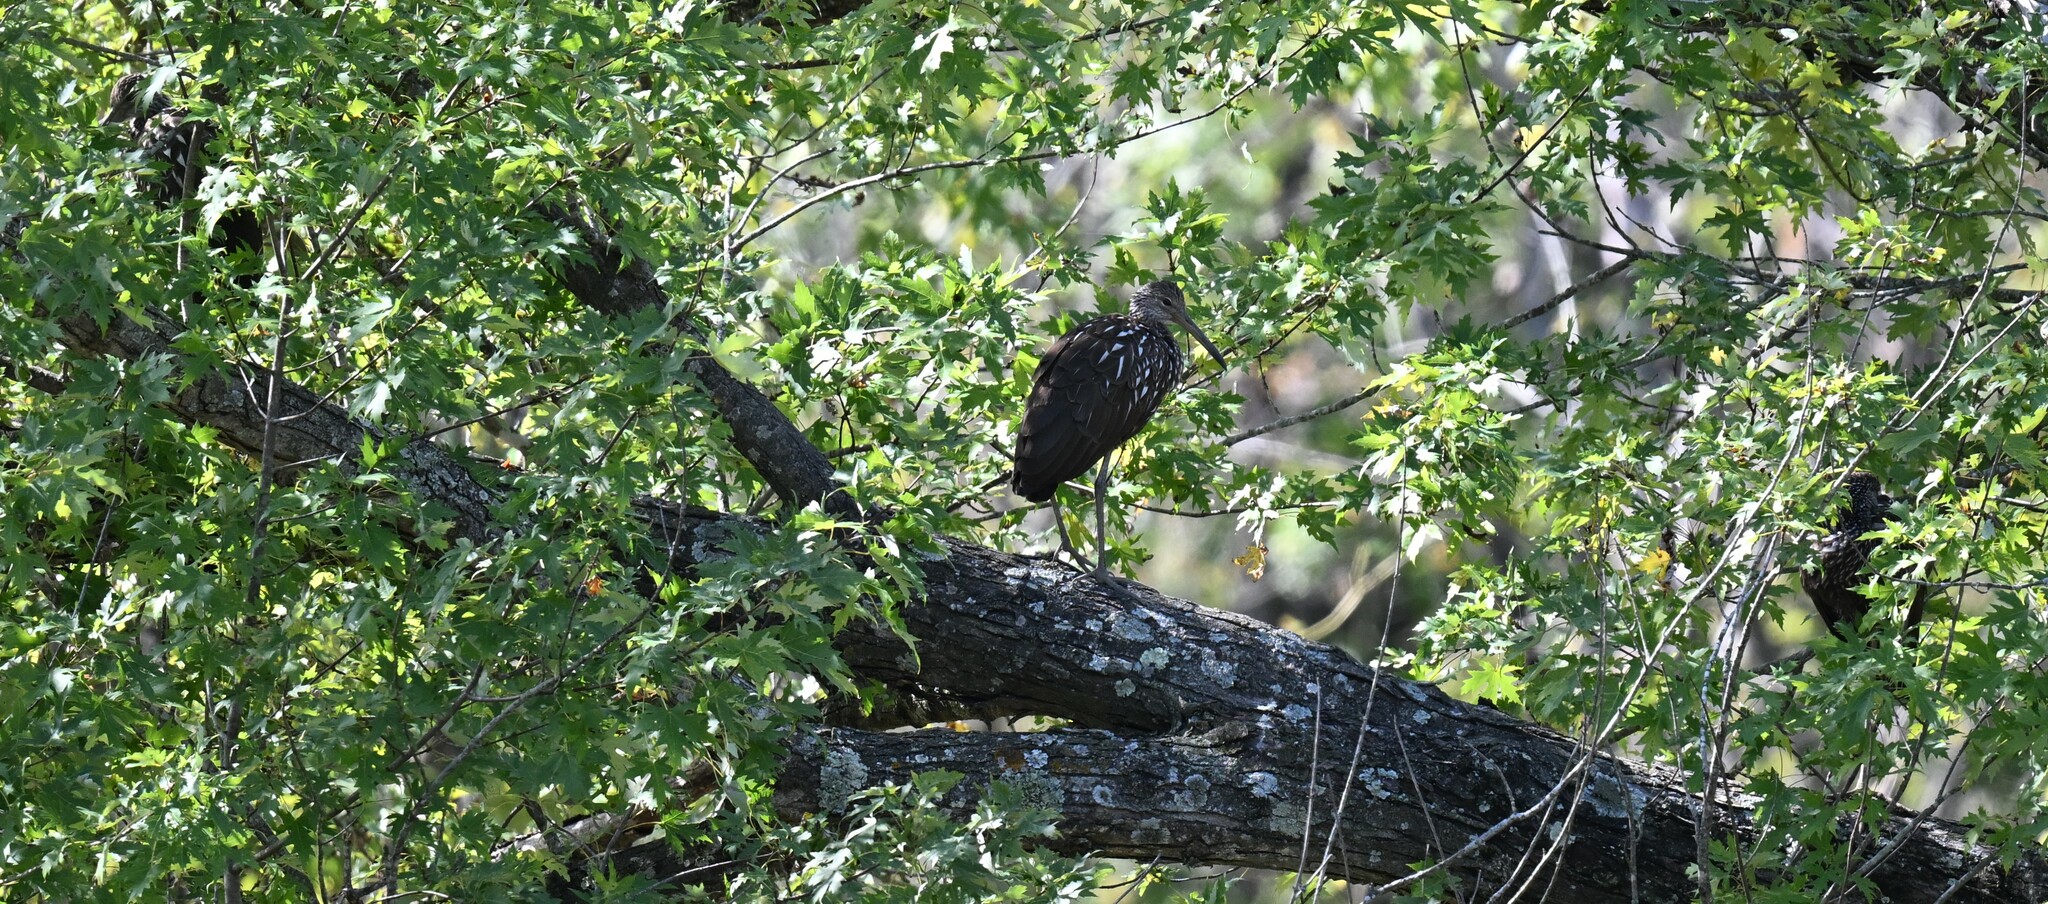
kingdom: Animalia
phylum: Chordata
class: Aves
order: Gruiformes
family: Aramidae
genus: Aramus
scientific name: Aramus guarauna
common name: Limpkin
